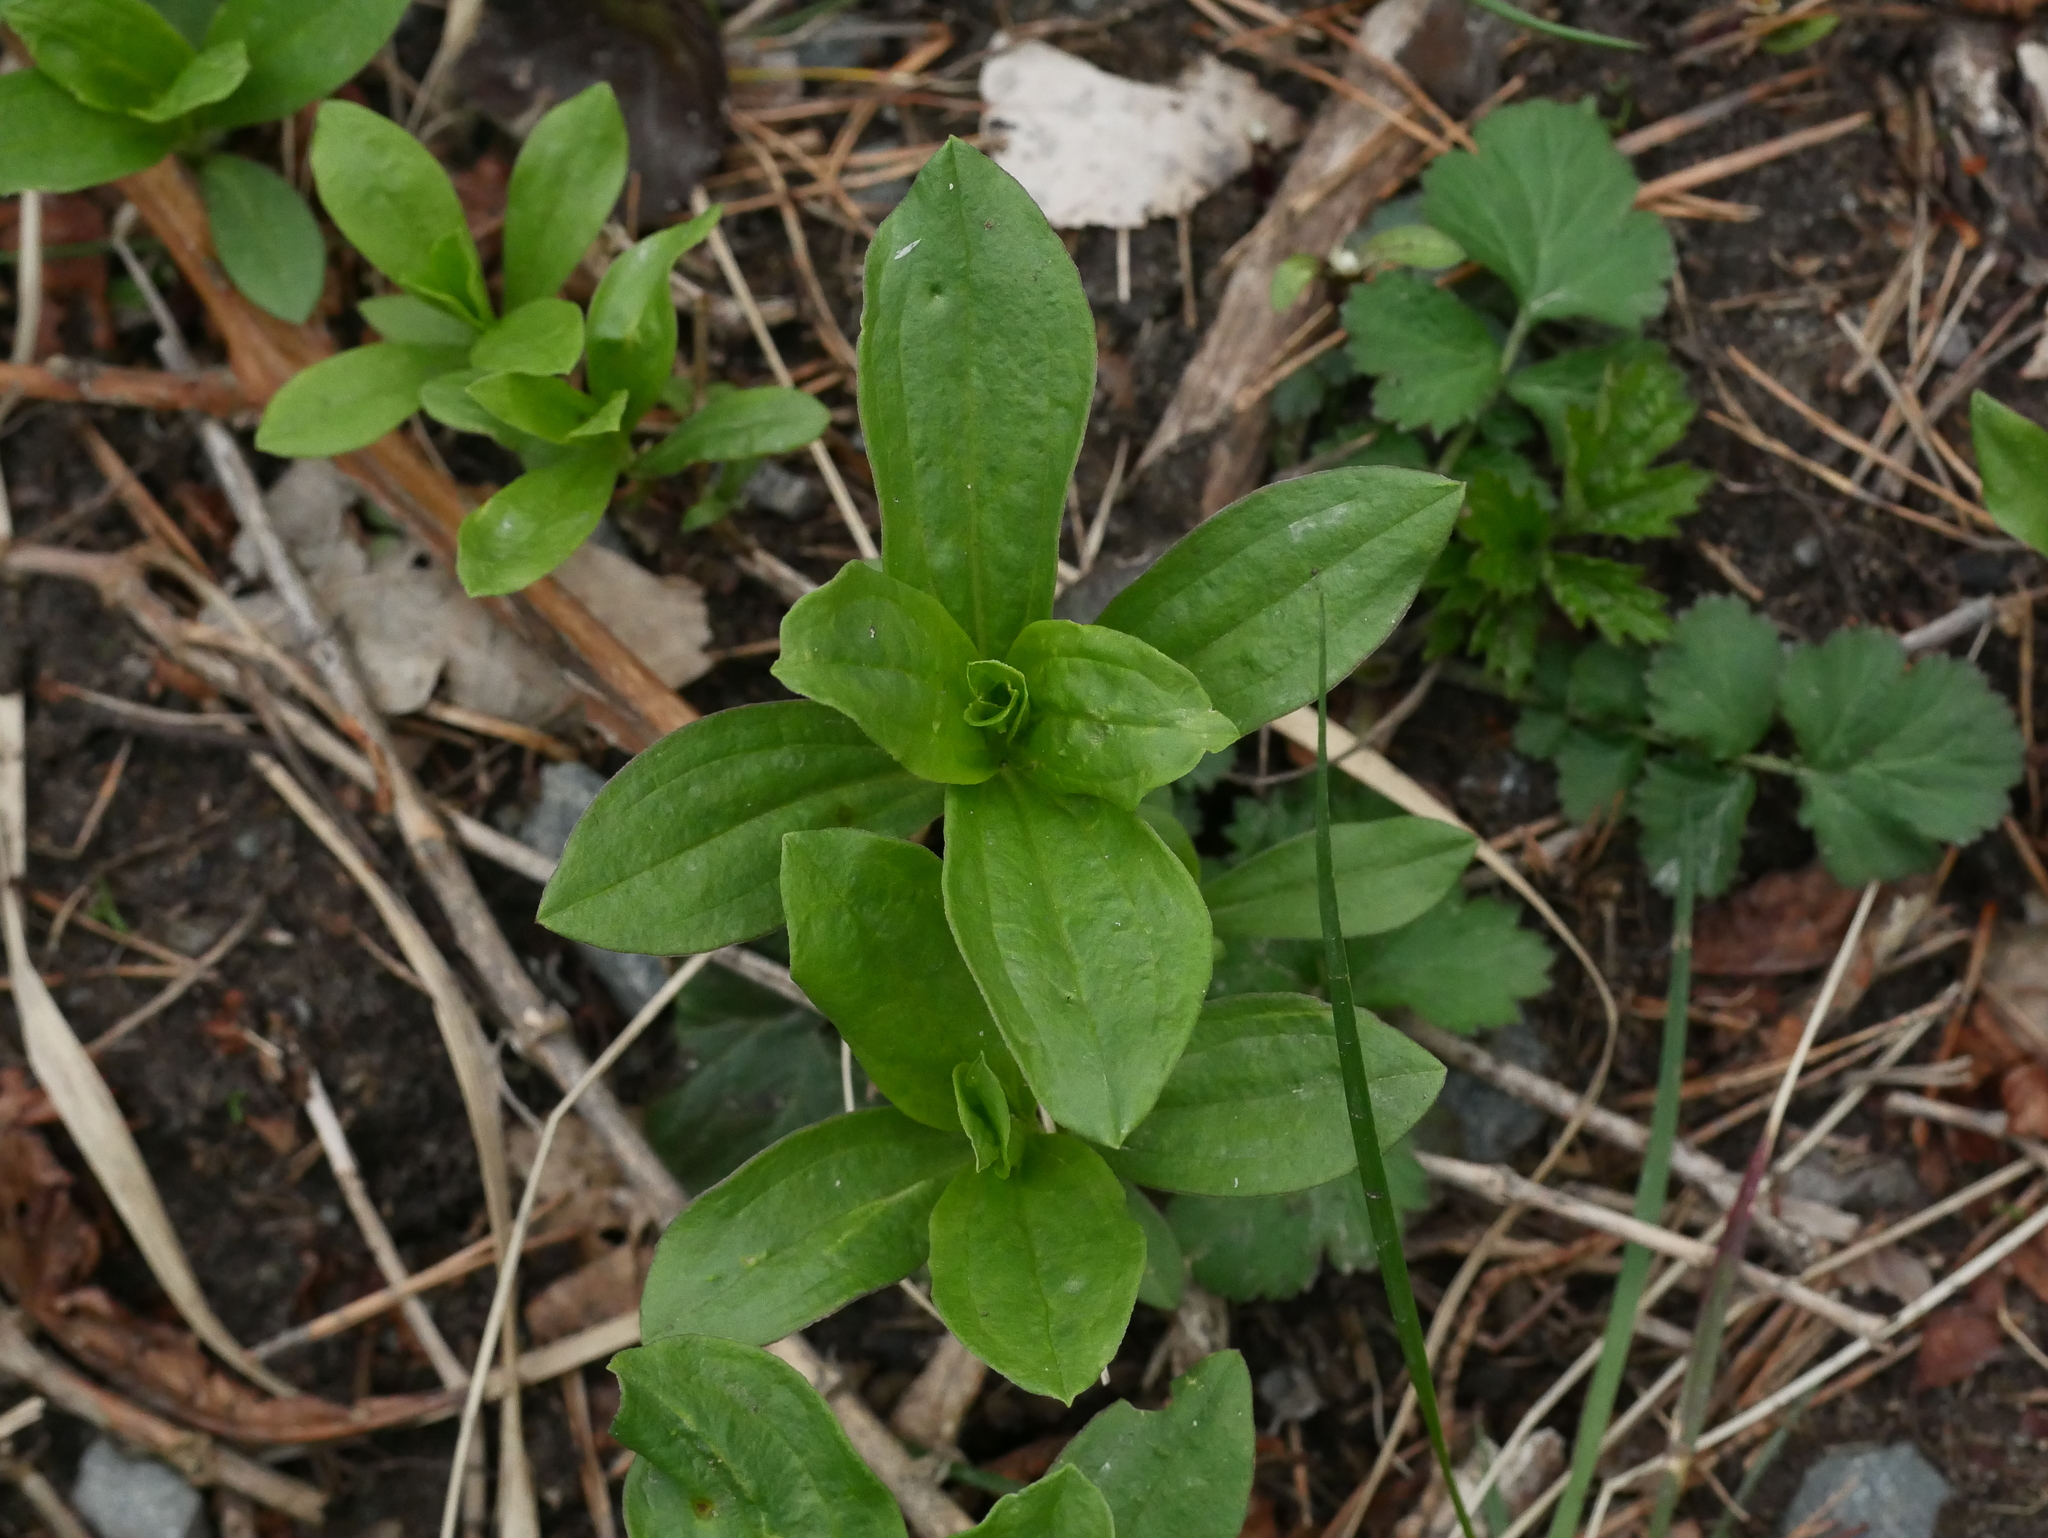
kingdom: Plantae
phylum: Tracheophyta
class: Magnoliopsida
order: Caryophyllales
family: Caryophyllaceae
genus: Saponaria
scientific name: Saponaria officinalis
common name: Soapwort
